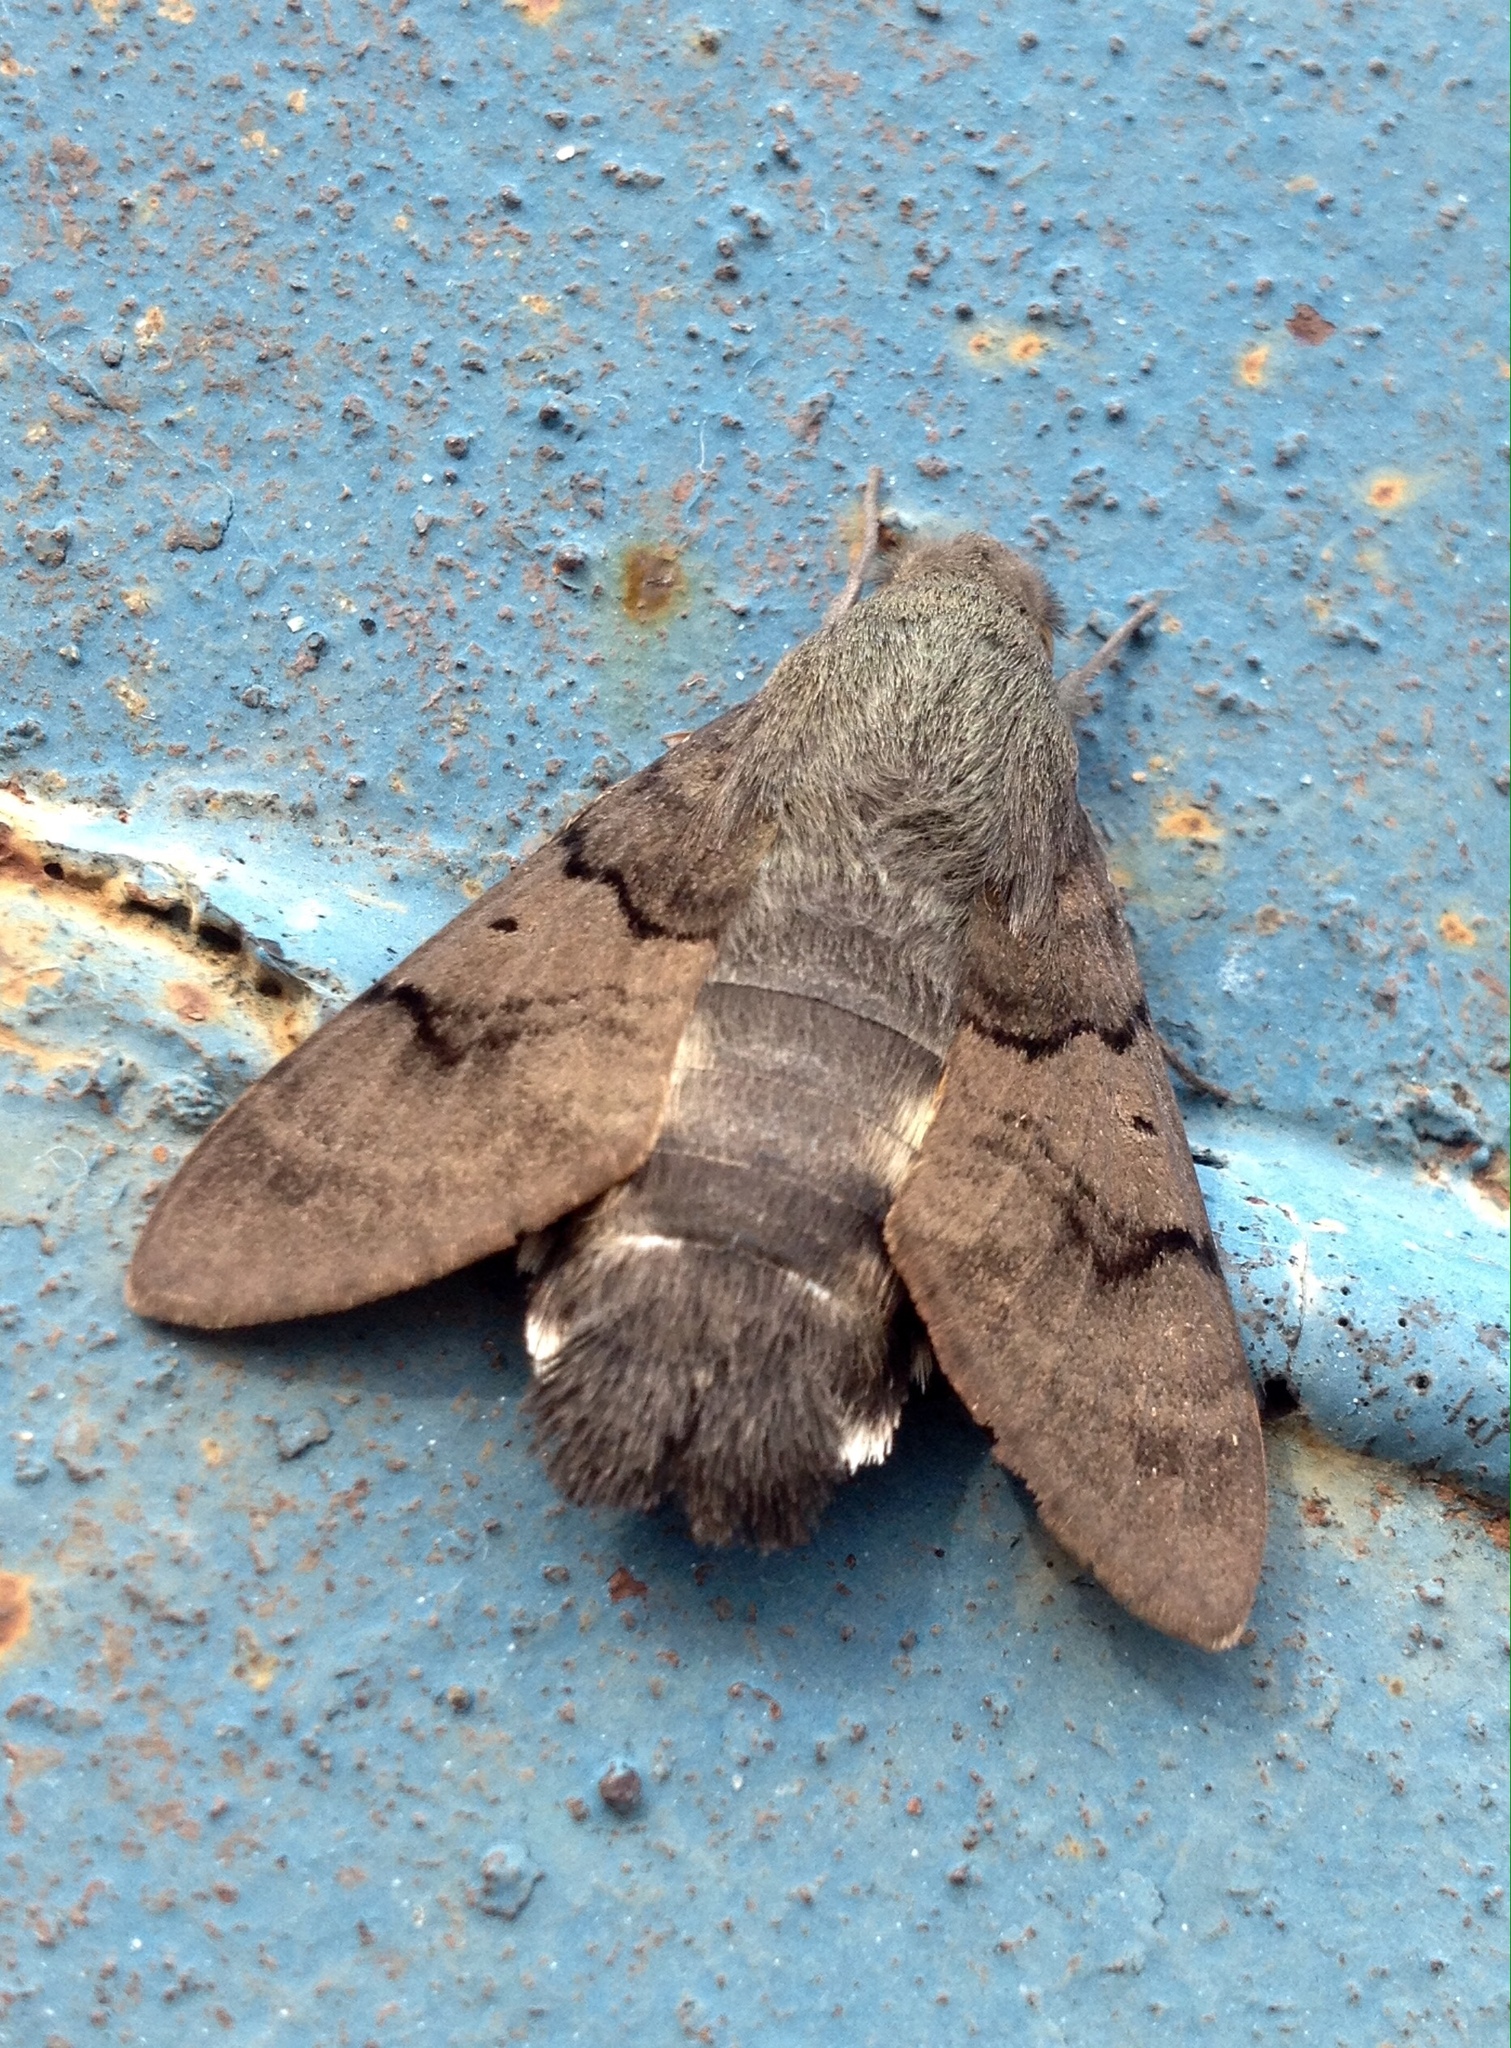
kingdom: Animalia
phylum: Arthropoda
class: Insecta
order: Lepidoptera
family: Sphingidae
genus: Macroglossum
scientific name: Macroglossum stellatarum
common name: Humming-bird hawk-moth
